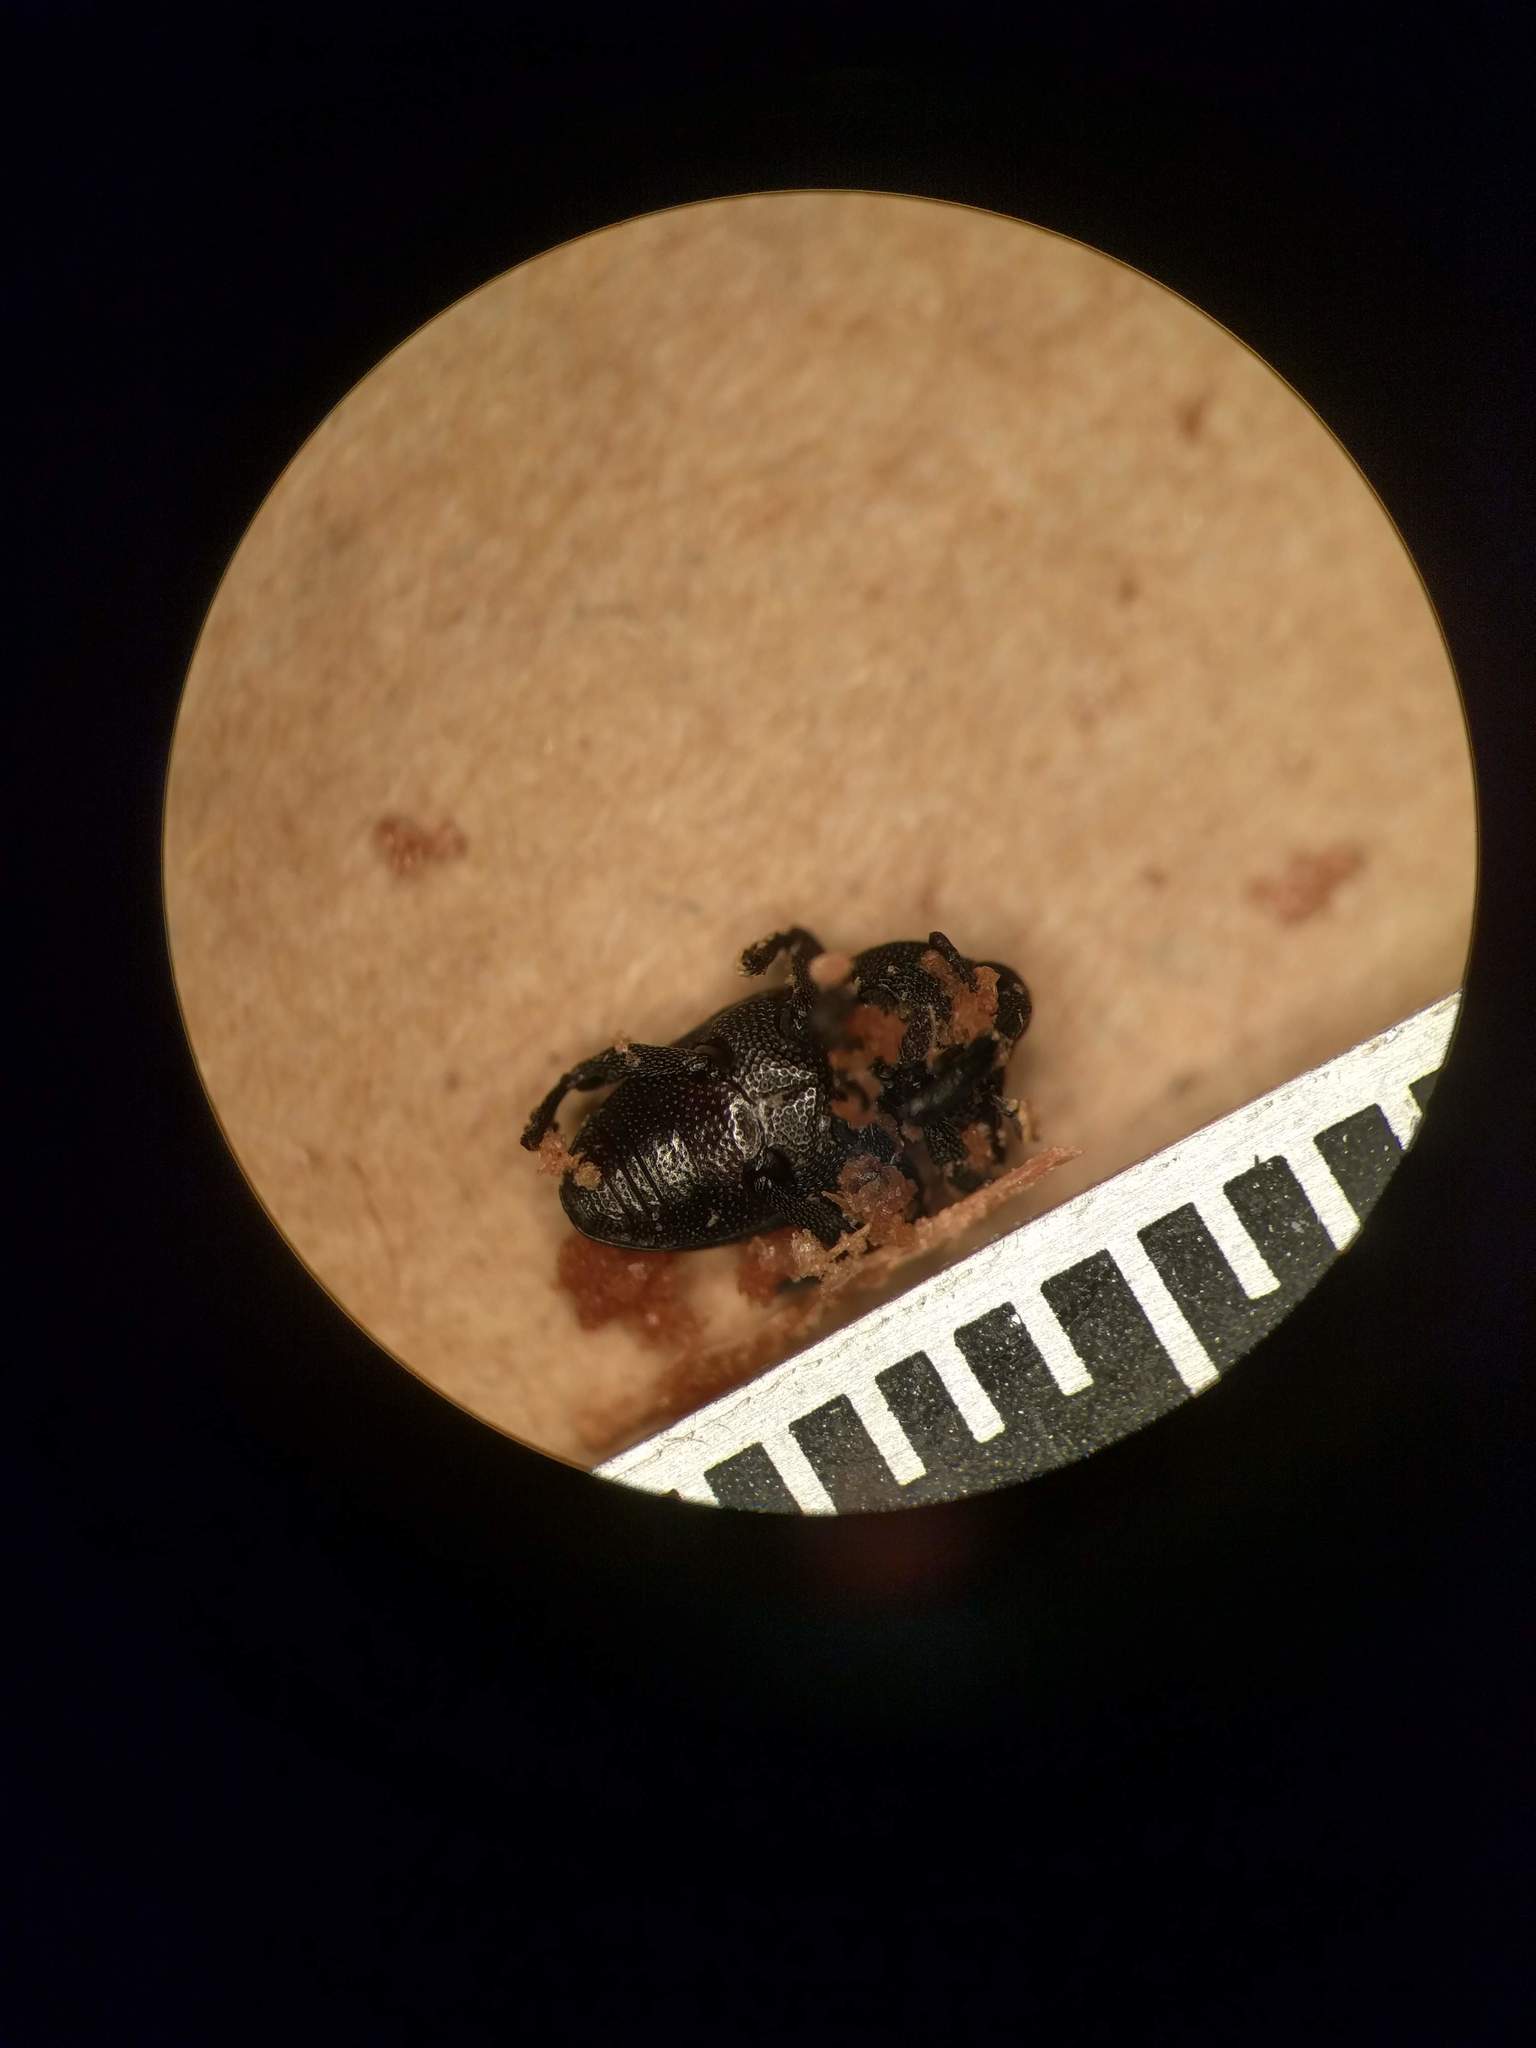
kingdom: Animalia
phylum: Arthropoda
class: Insecta
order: Coleoptera
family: Curculionidae
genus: Baridius
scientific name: Baridius aterrimus
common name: Orchid weevil
